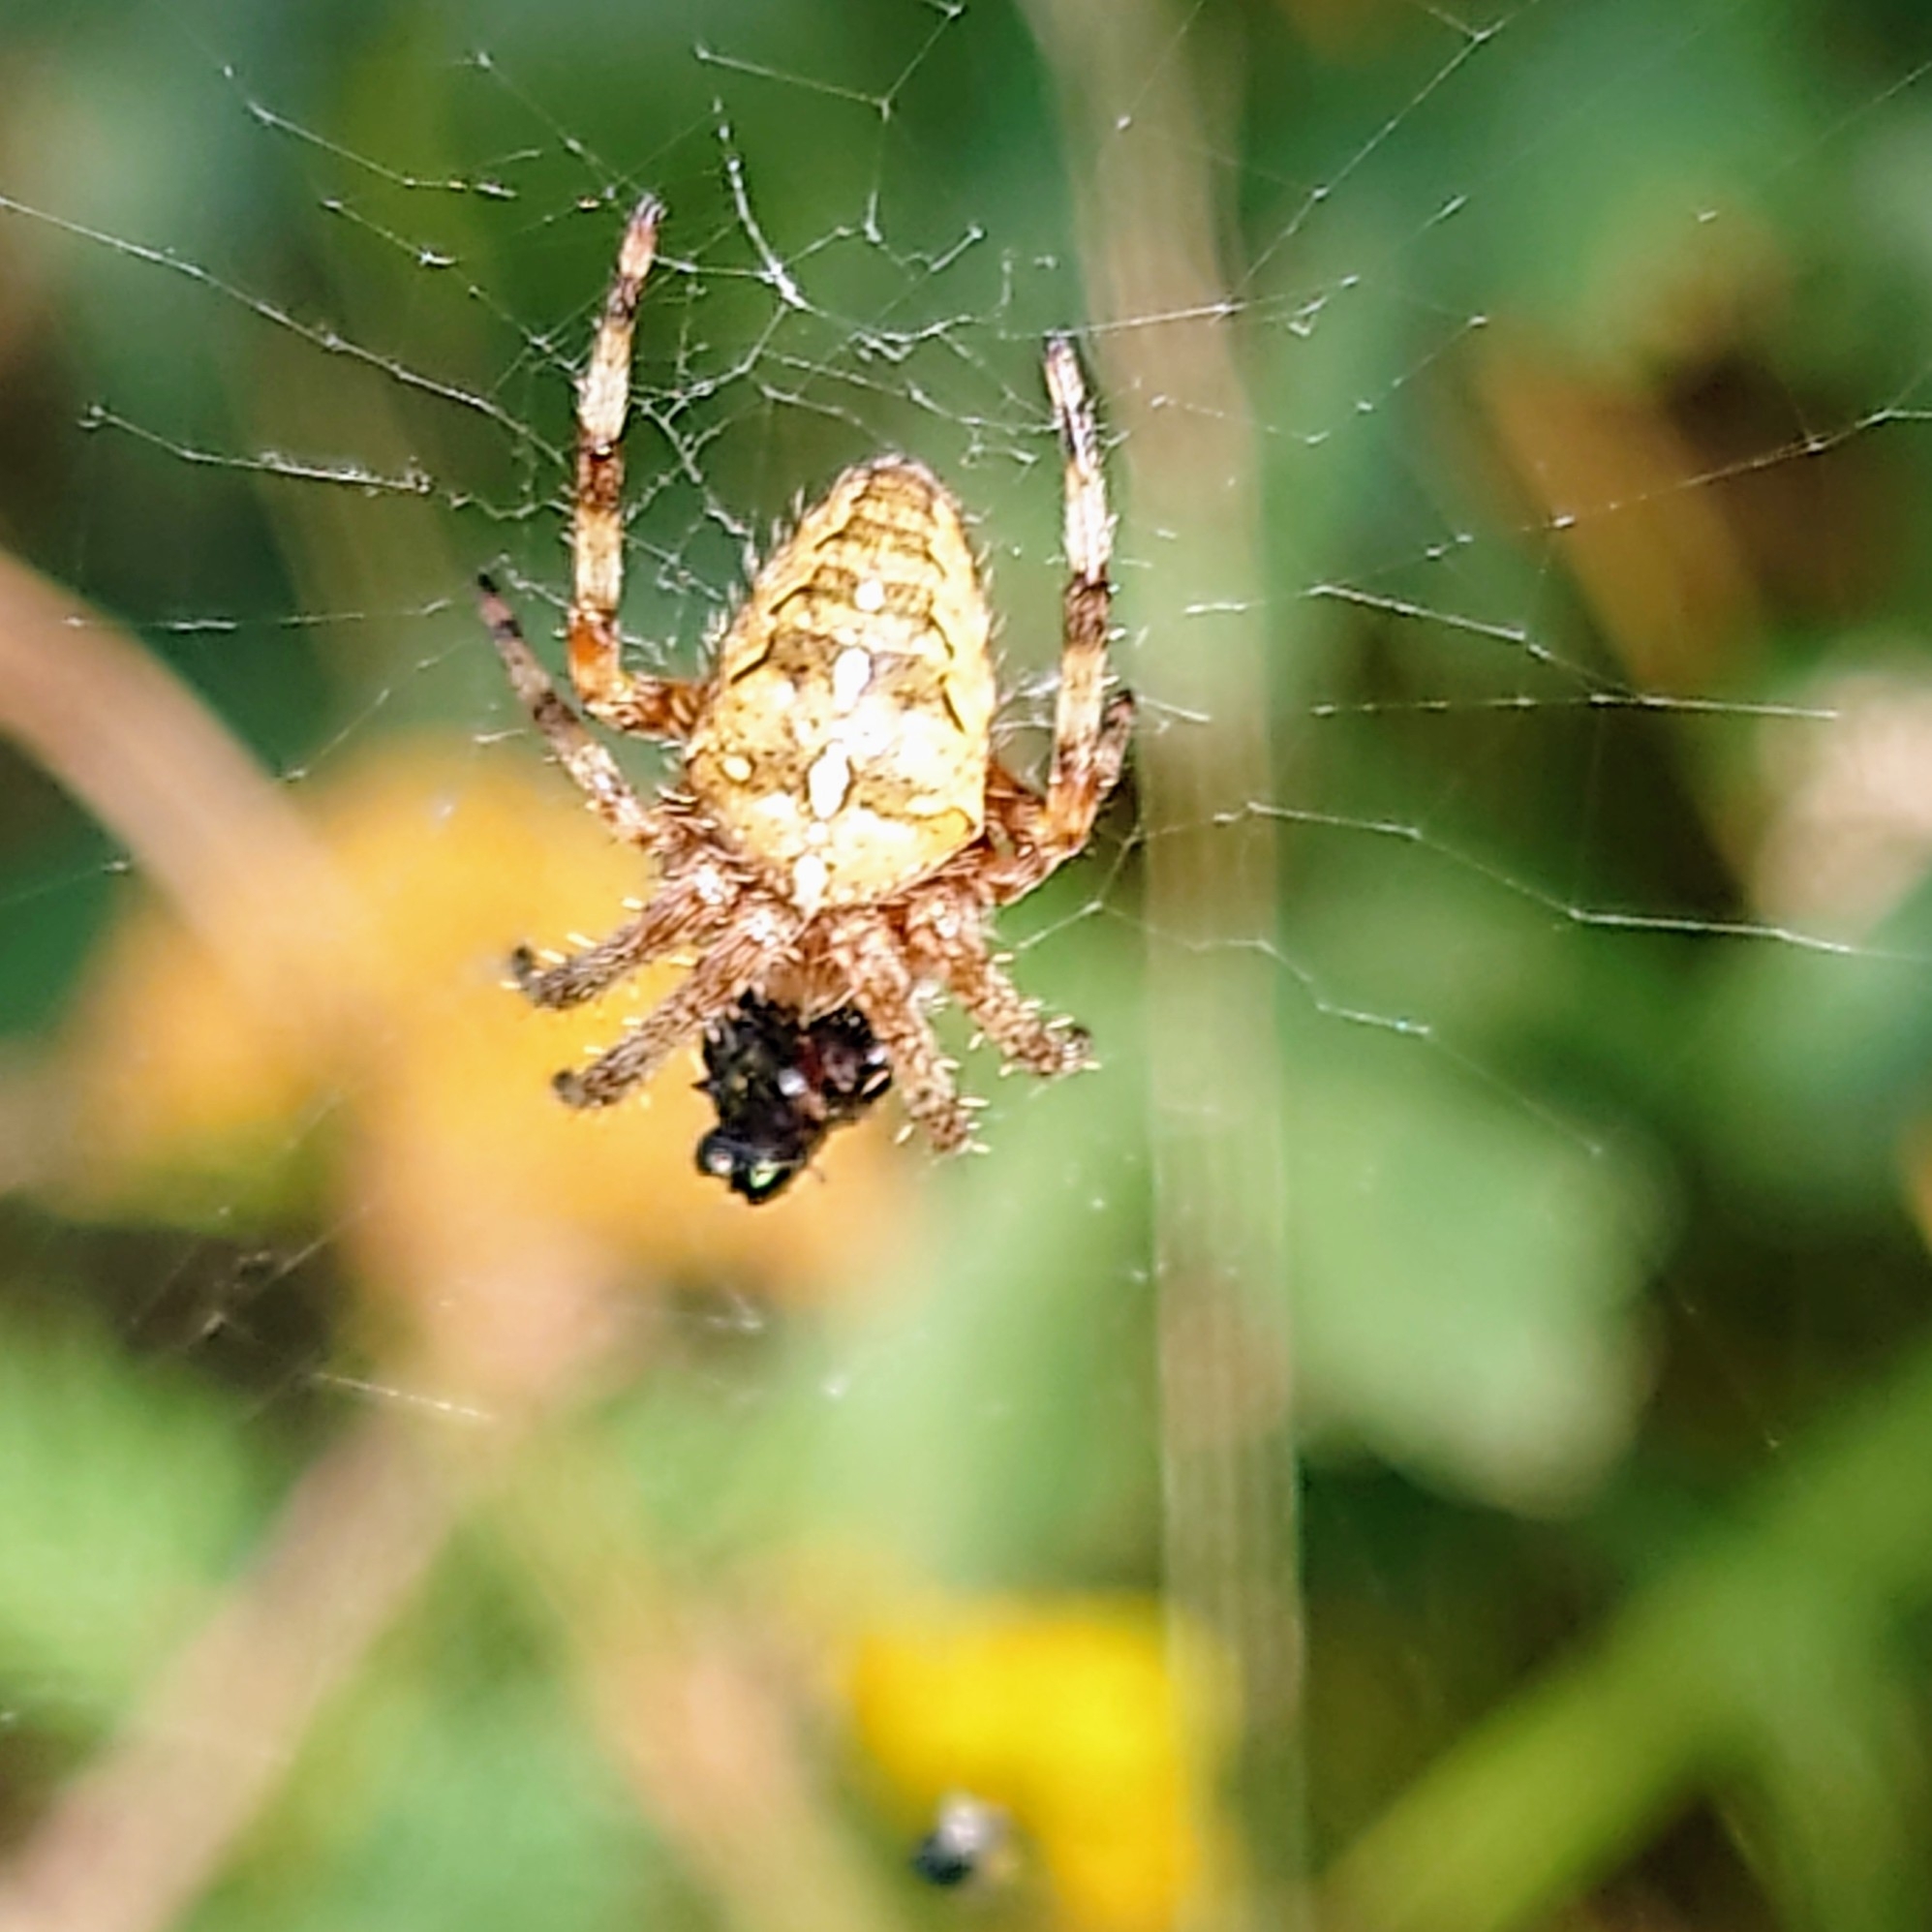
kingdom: Animalia
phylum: Arthropoda
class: Arachnida
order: Araneae
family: Araneidae
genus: Araneus
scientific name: Araneus diadematus
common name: Cross orbweaver
